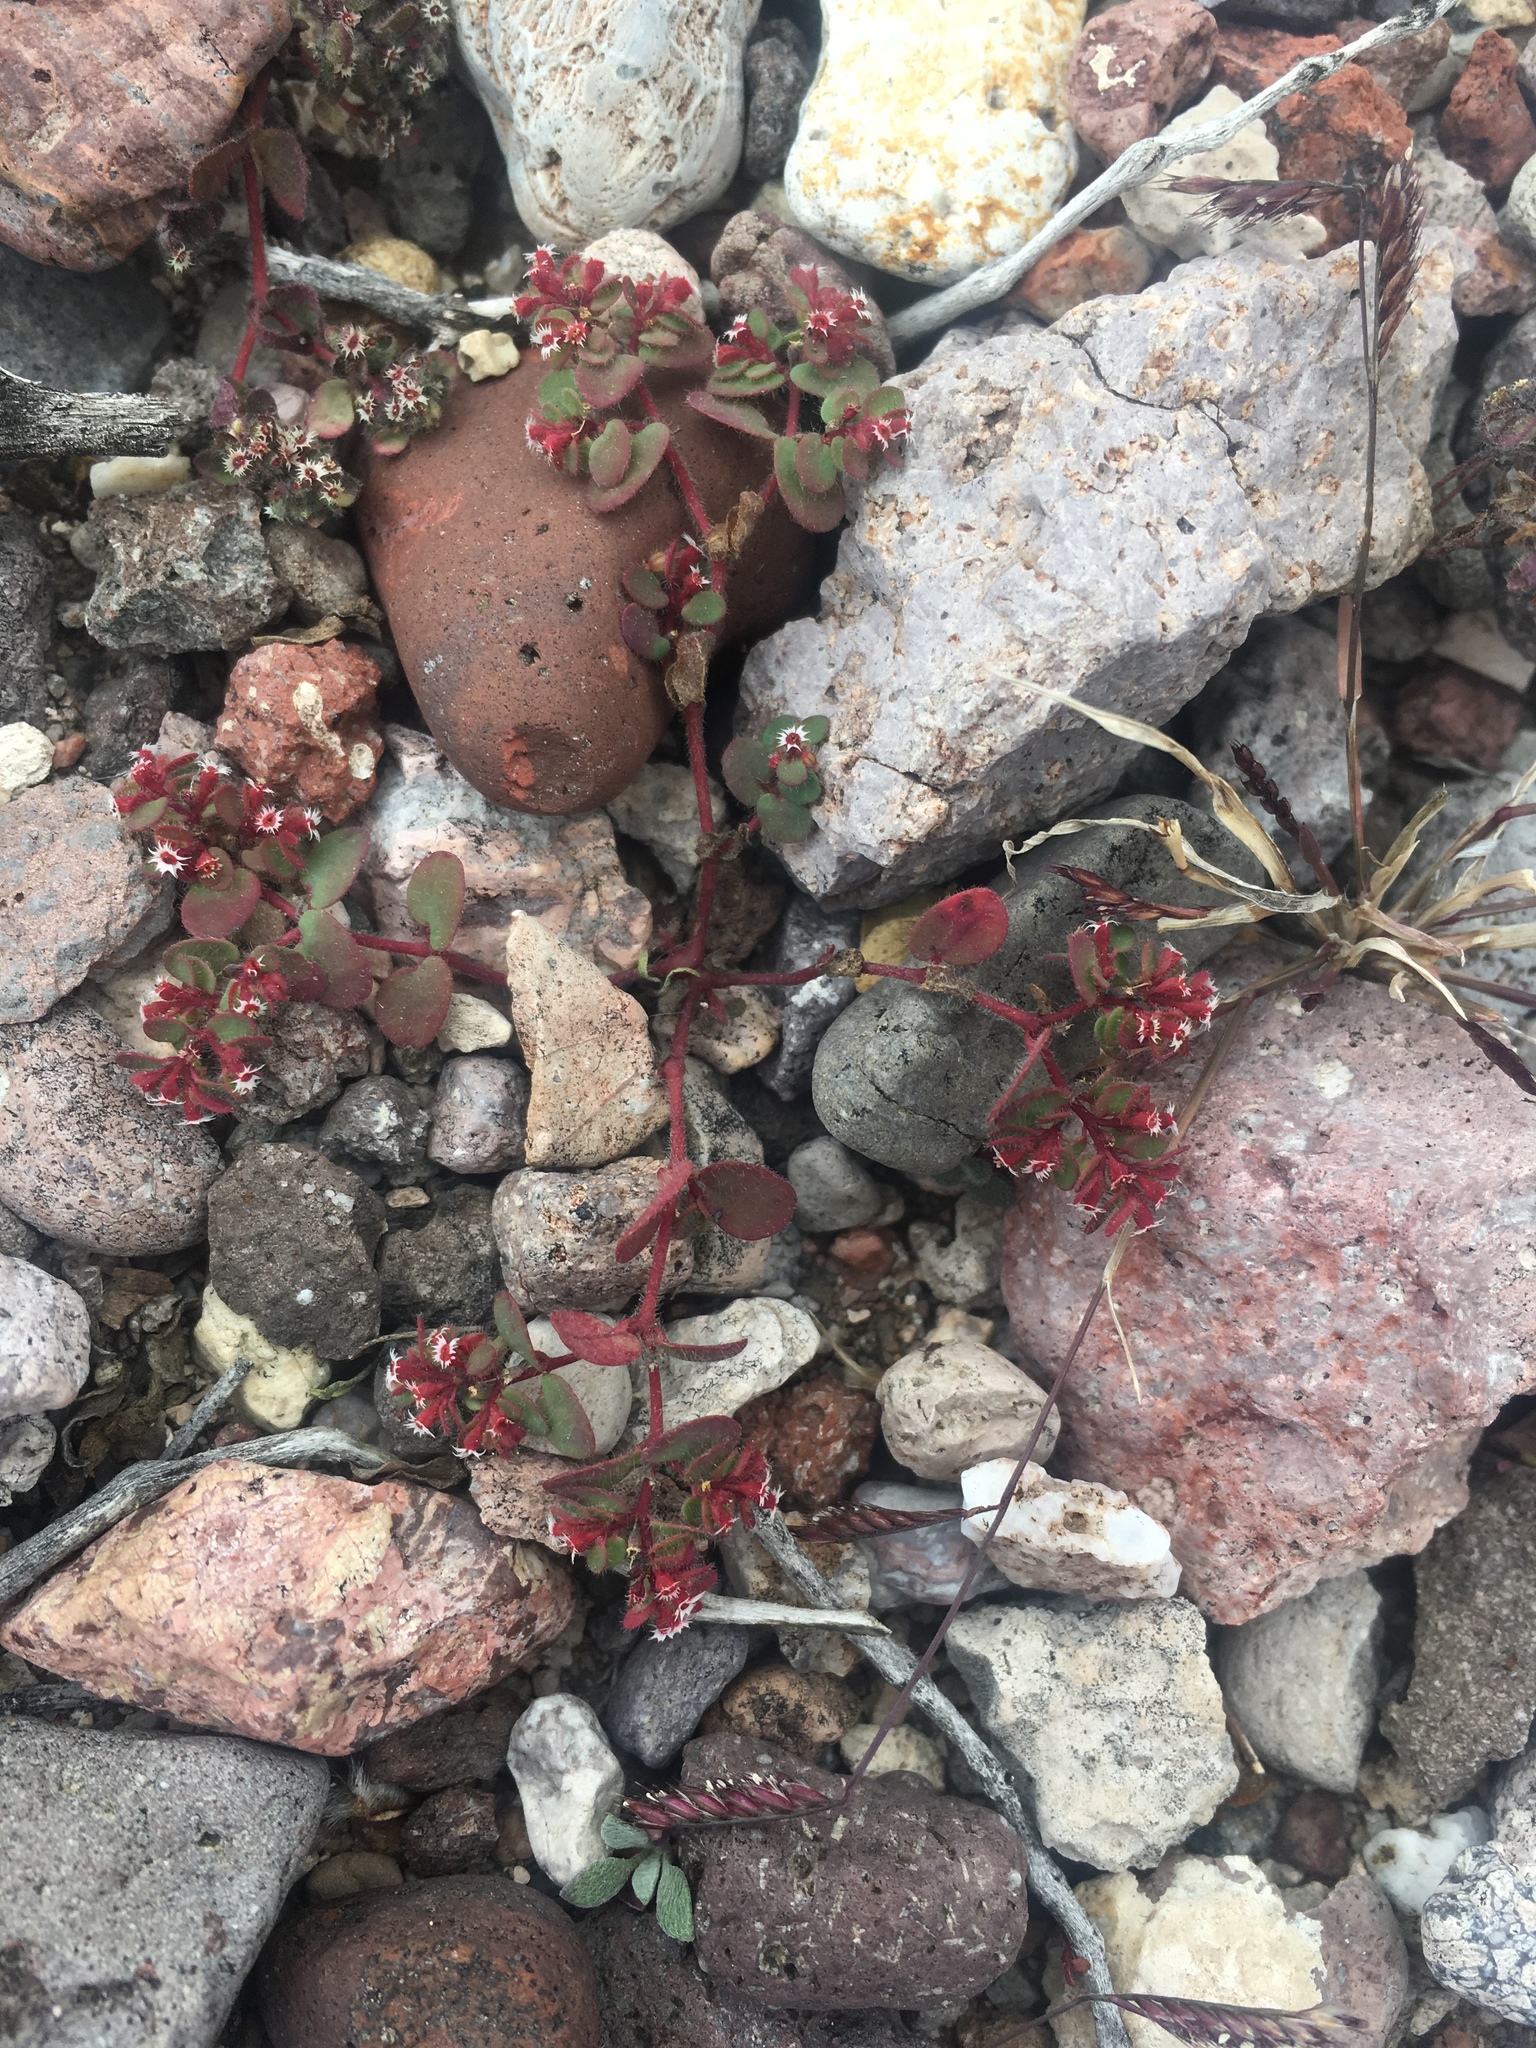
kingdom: Plantae
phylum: Tracheophyta
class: Magnoliopsida
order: Malpighiales
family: Euphorbiaceae
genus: Euphorbia
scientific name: Euphorbia setiloba
